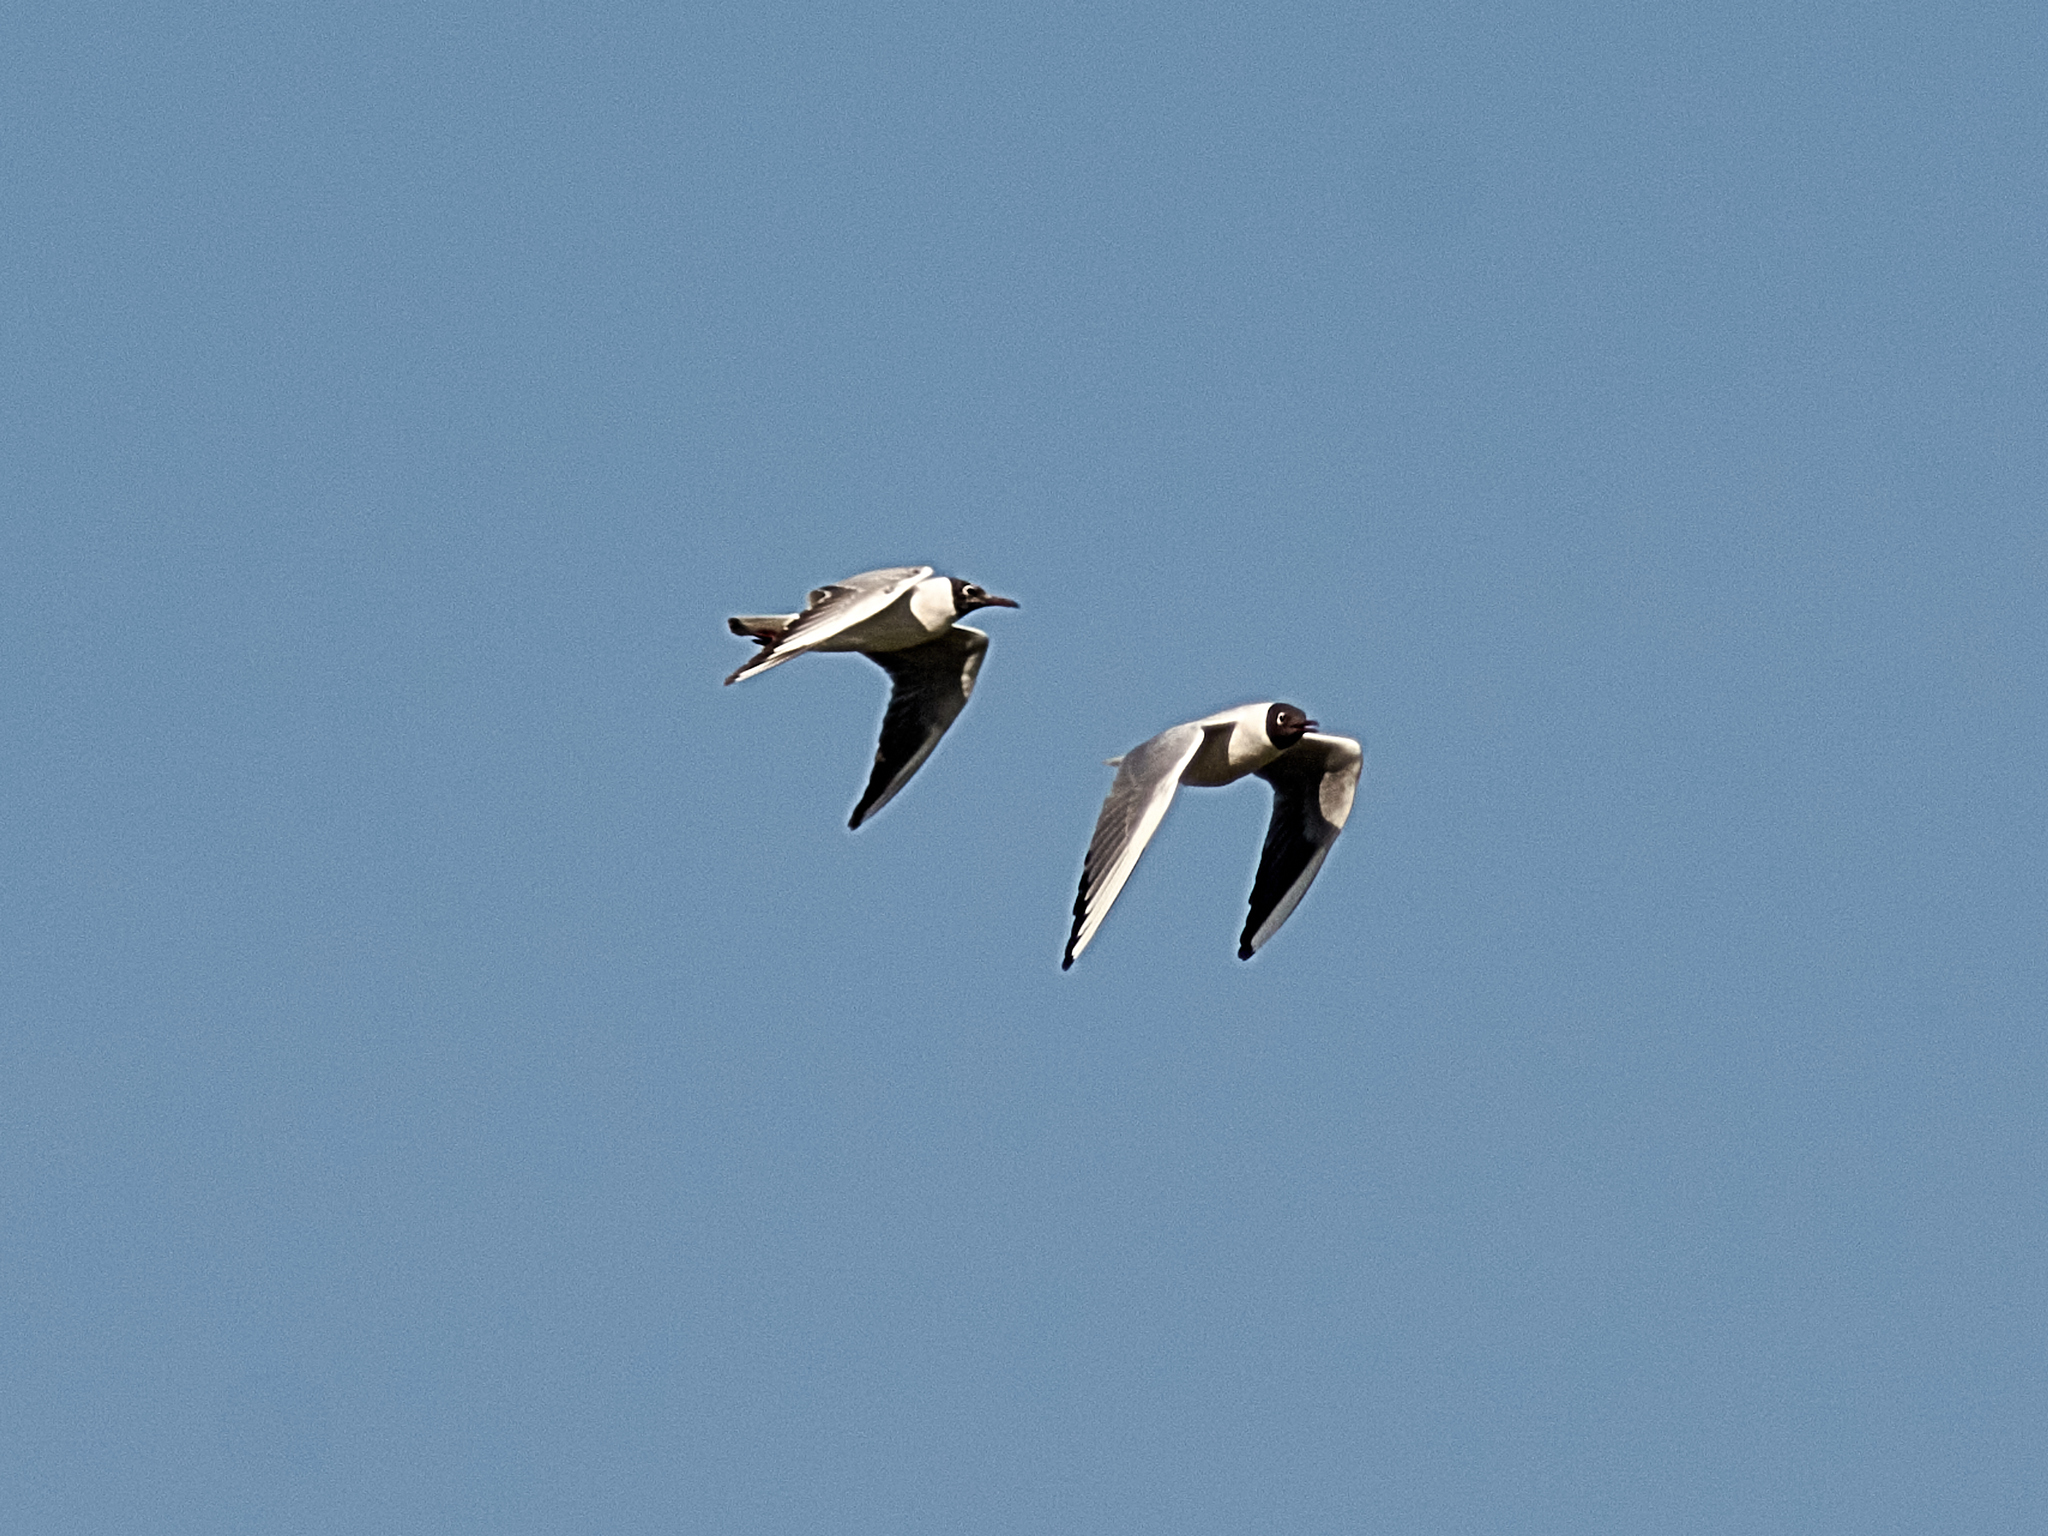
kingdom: Animalia
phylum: Chordata
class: Aves
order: Charadriiformes
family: Laridae
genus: Chroicocephalus
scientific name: Chroicocephalus ridibundus
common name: Black-headed gull
